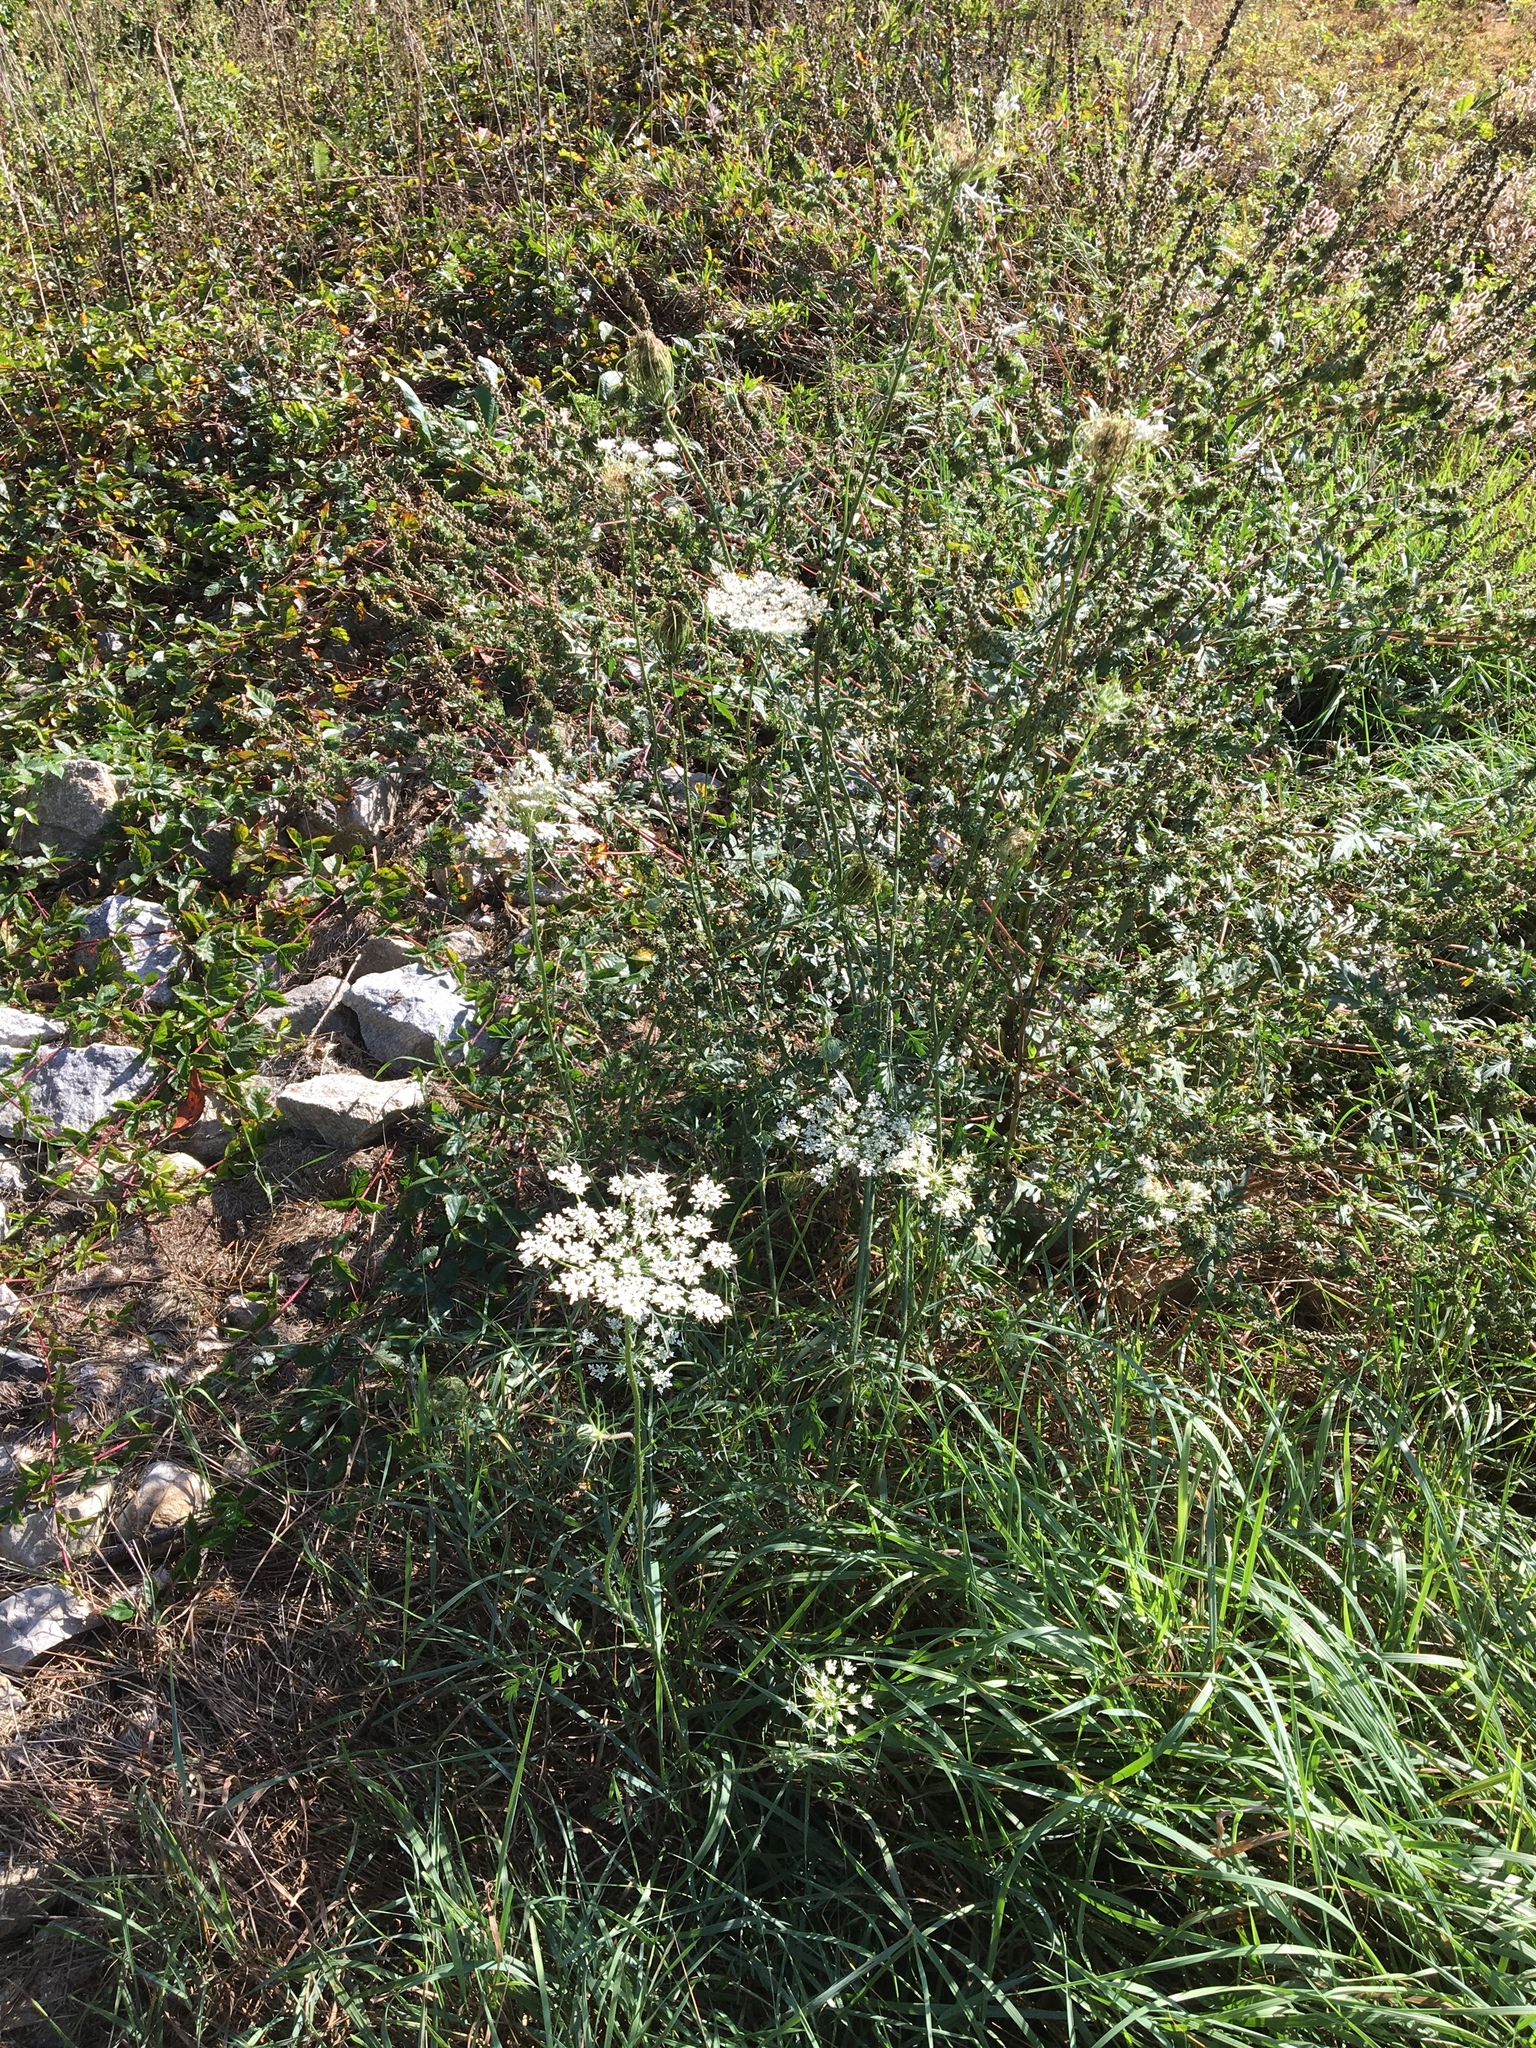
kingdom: Plantae
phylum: Tracheophyta
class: Magnoliopsida
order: Apiales
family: Apiaceae
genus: Daucus
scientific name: Daucus carota
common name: Wild carrot
